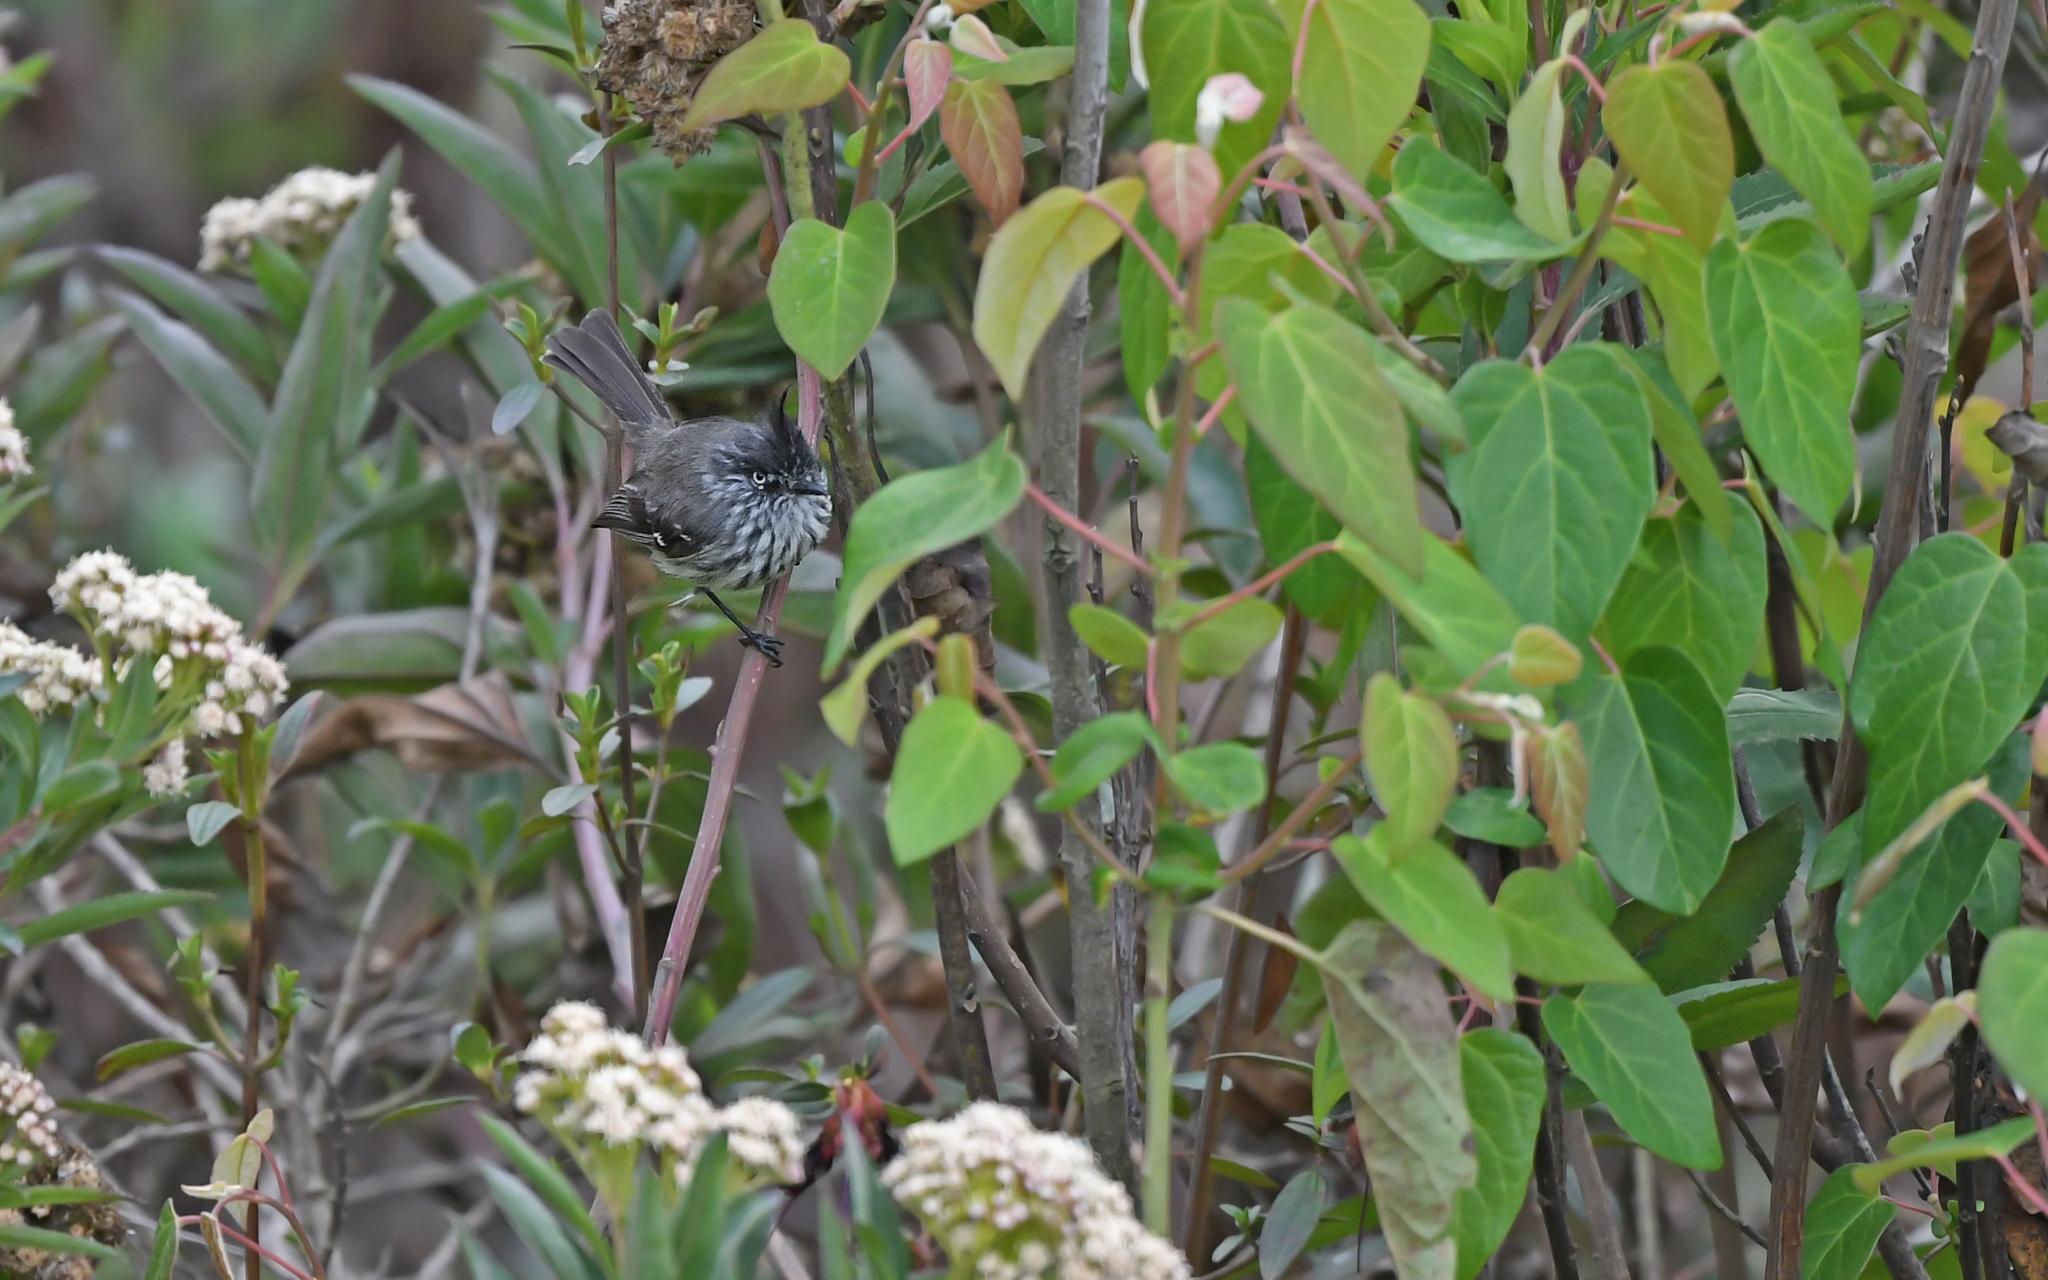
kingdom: Animalia
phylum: Chordata
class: Aves
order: Passeriformes
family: Tyrannidae
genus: Anairetes
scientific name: Anairetes parulus
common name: Tufted tit-tyrant
